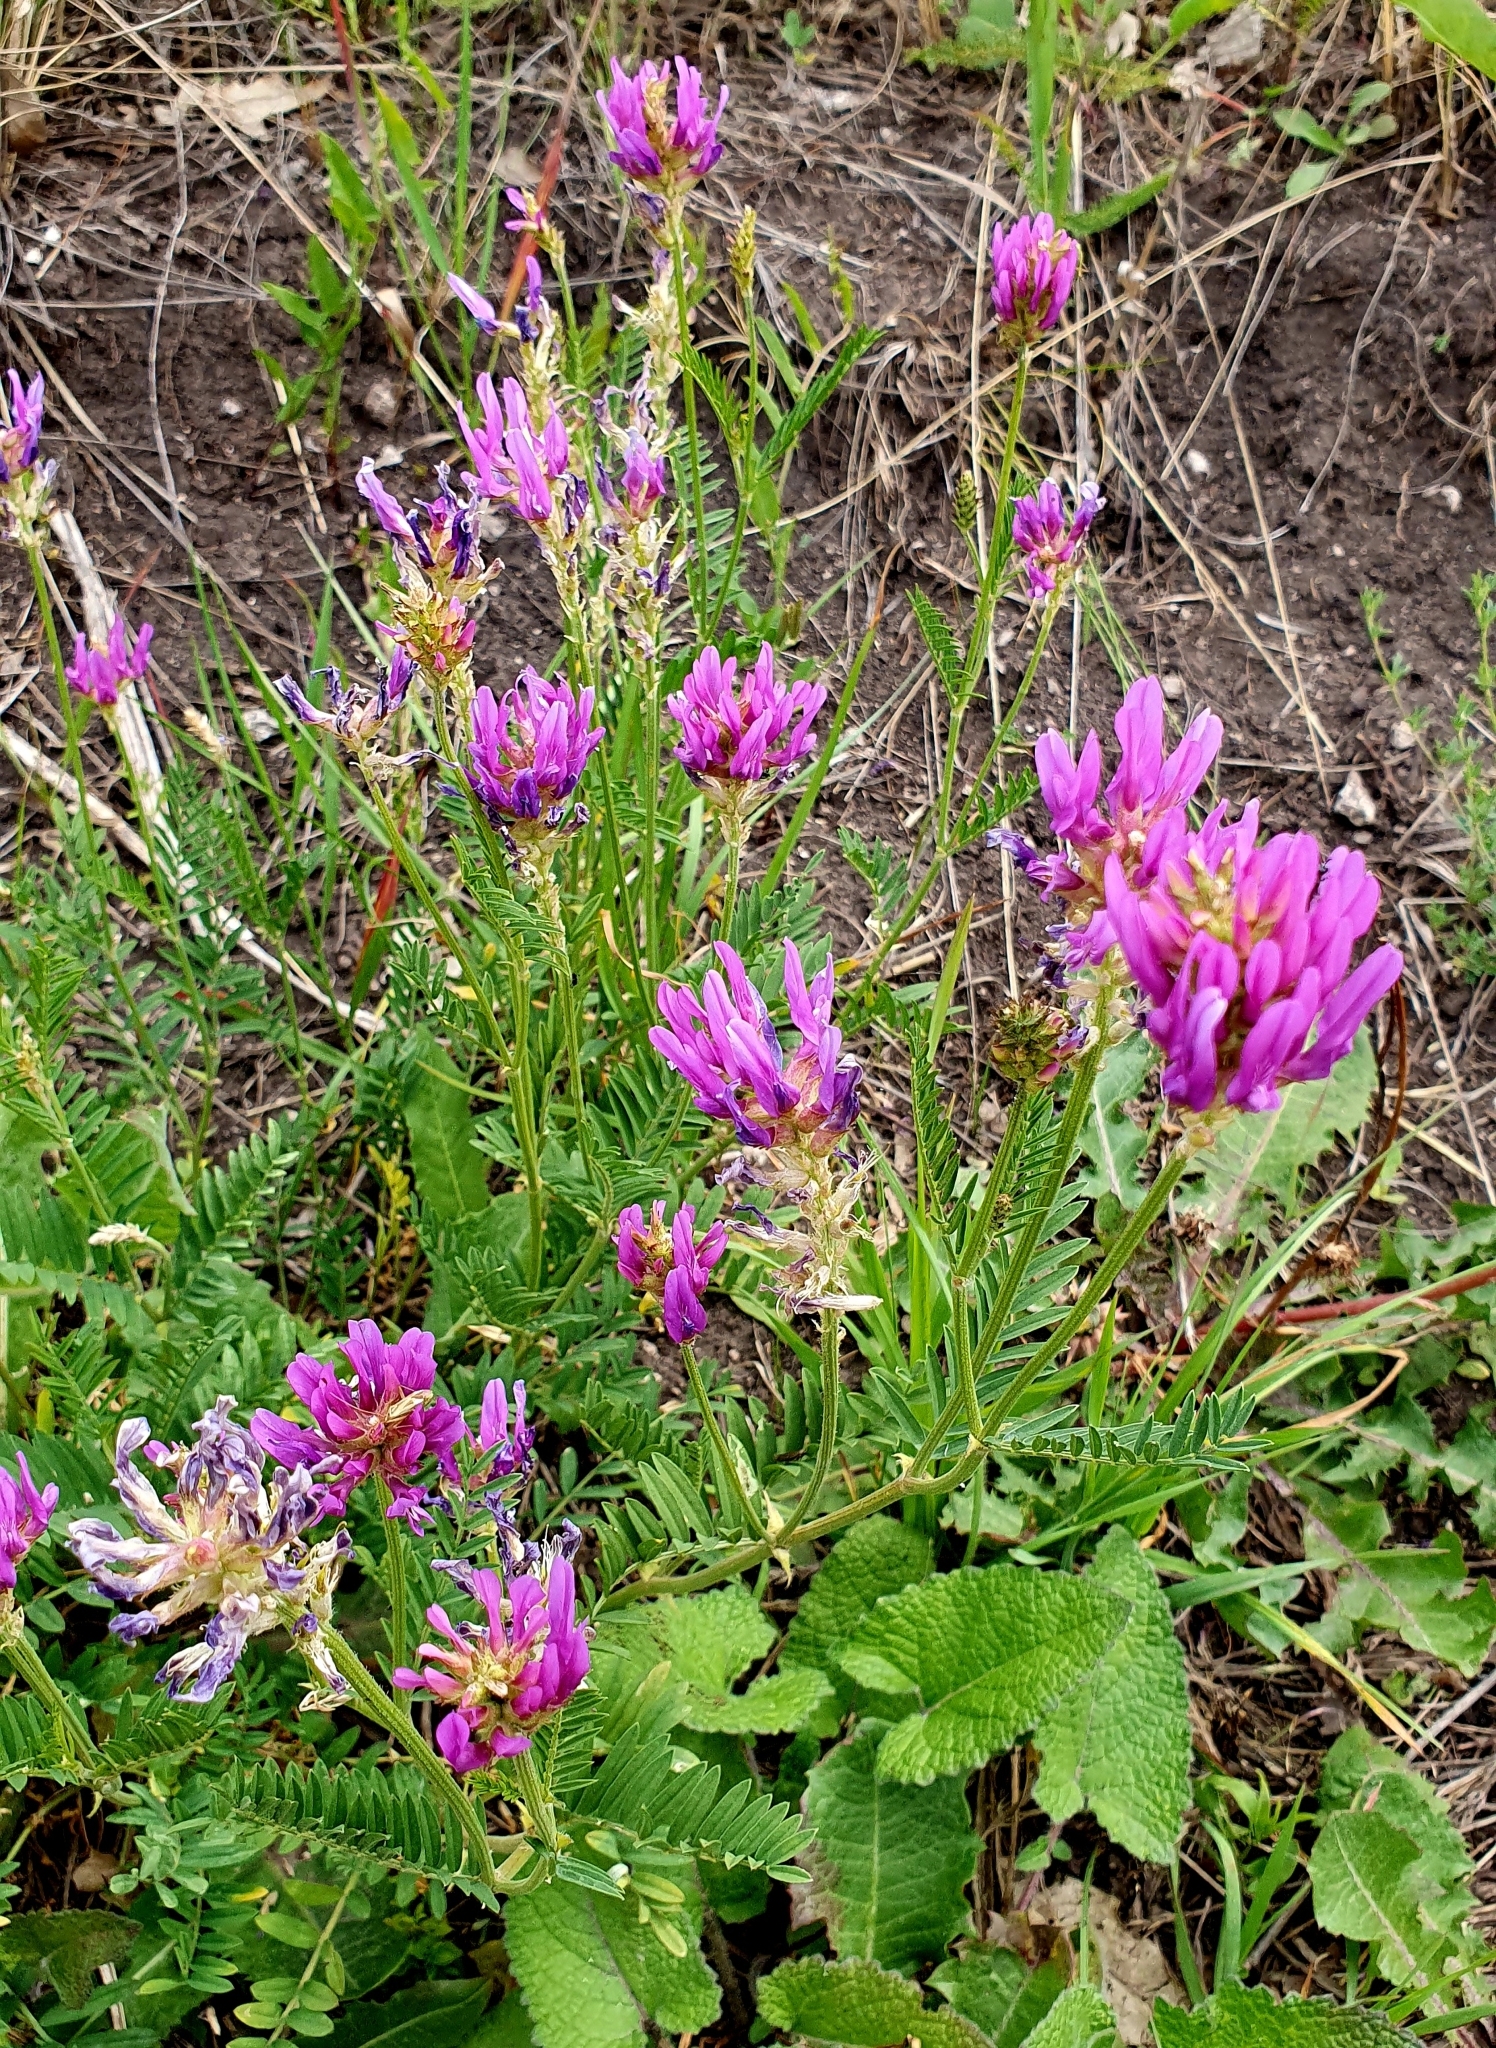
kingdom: Plantae
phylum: Tracheophyta
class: Magnoliopsida
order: Fabales
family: Fabaceae
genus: Astragalus
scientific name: Astragalus onobrychis
